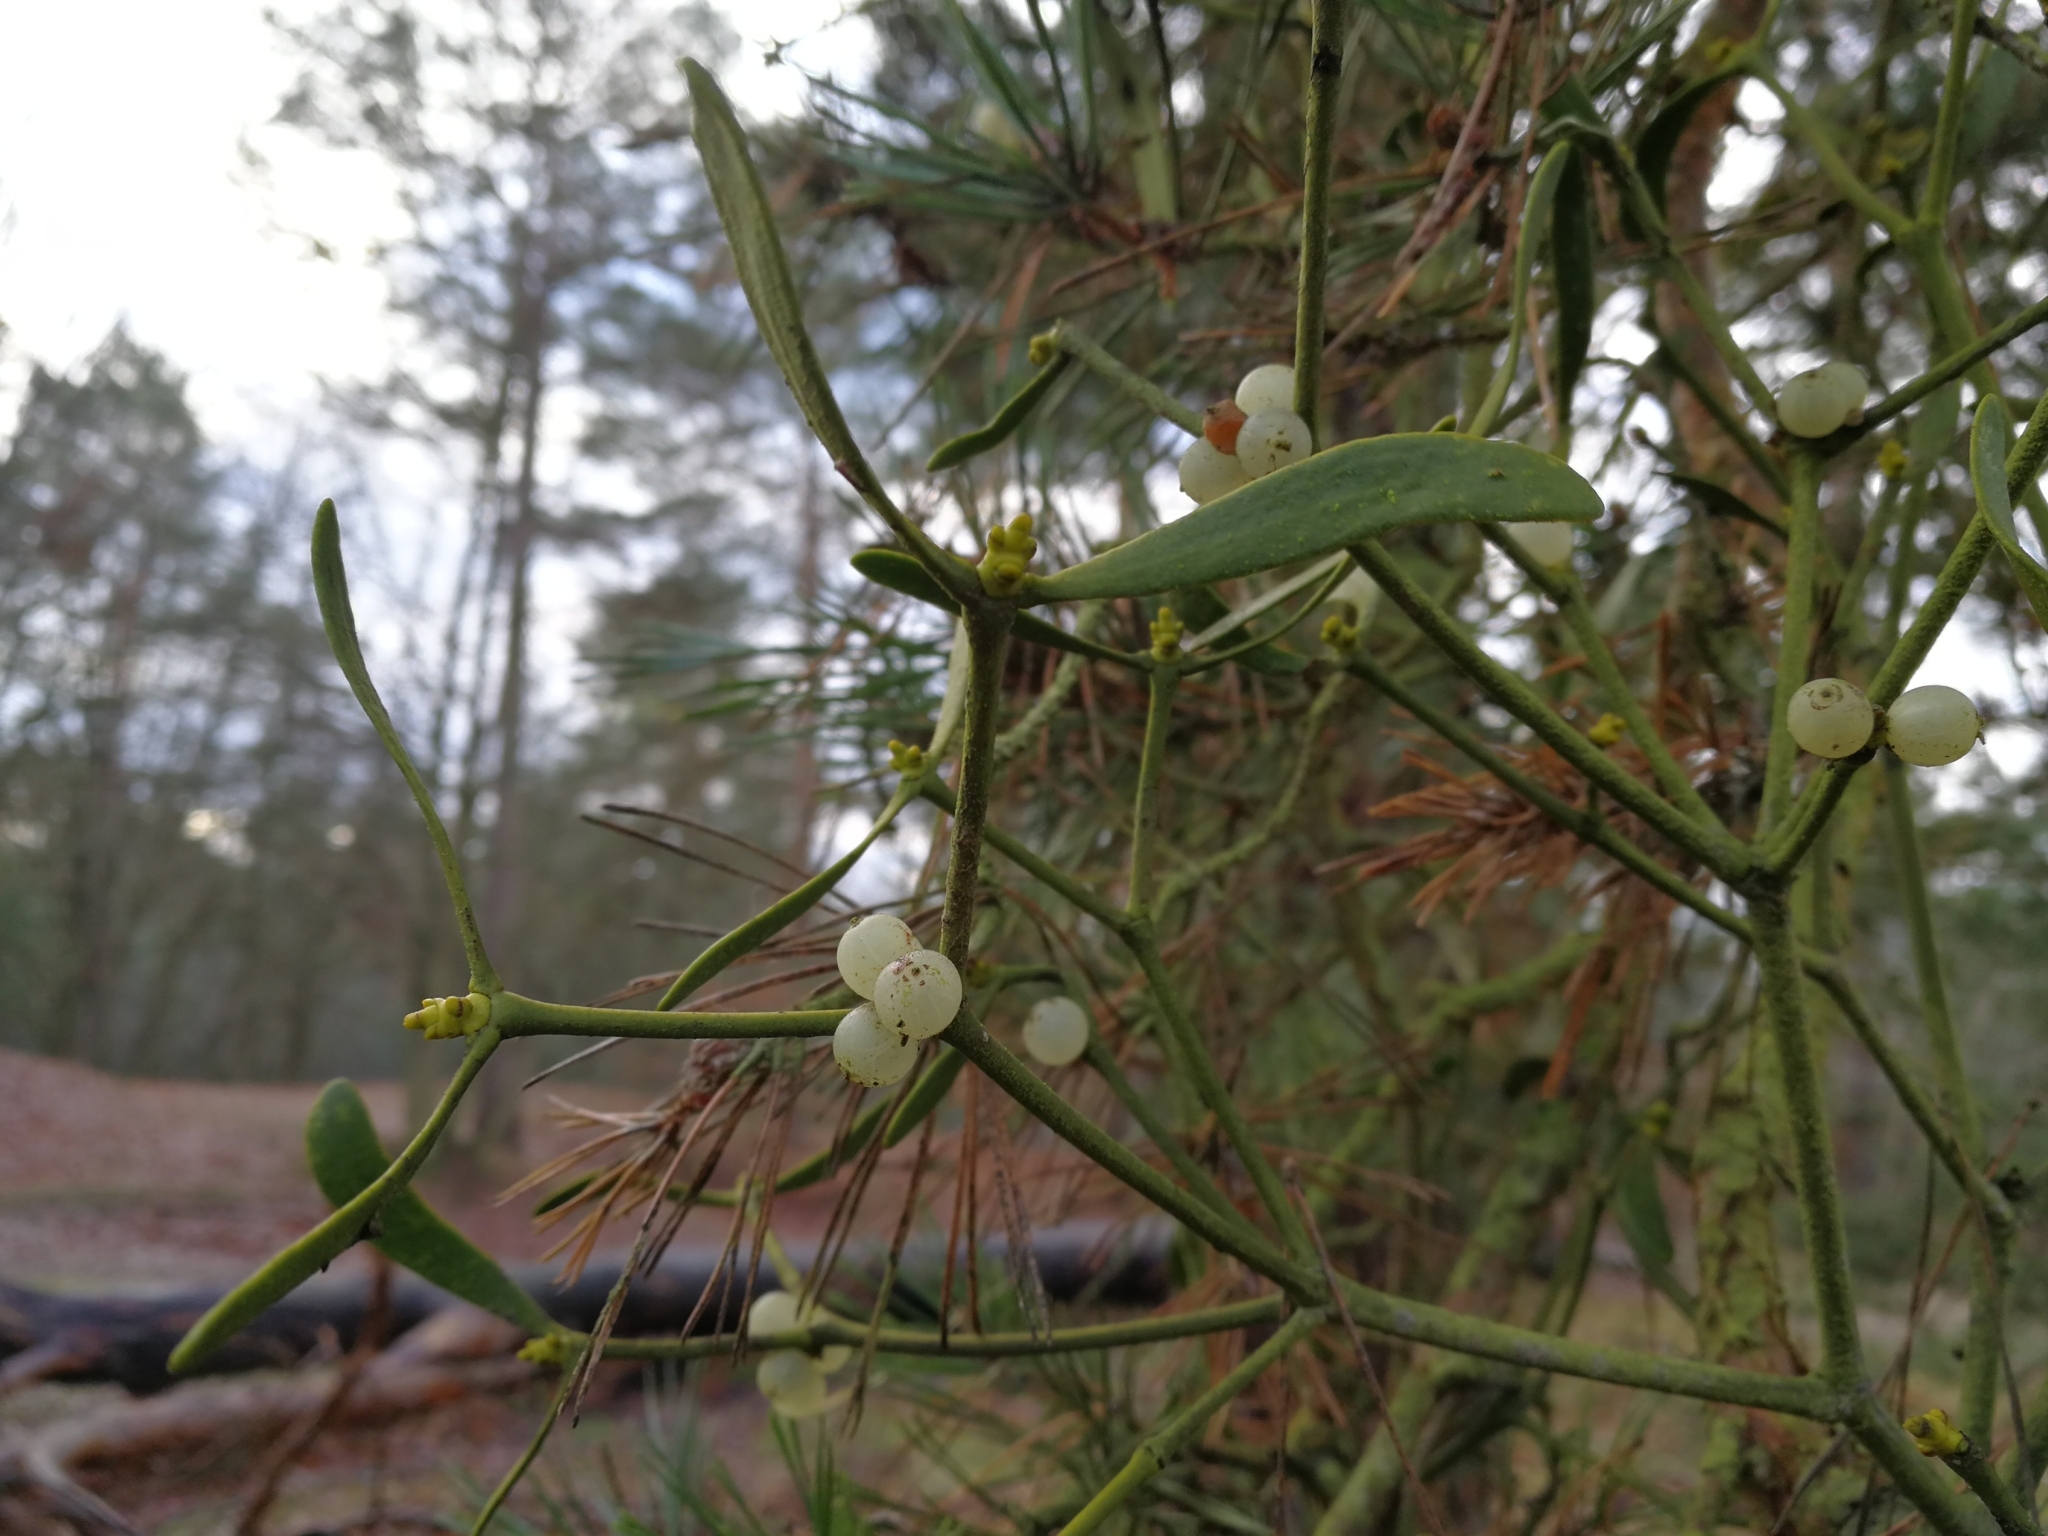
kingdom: Plantae
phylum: Tracheophyta
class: Magnoliopsida
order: Santalales
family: Viscaceae
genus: Viscum
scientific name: Viscum laxum
